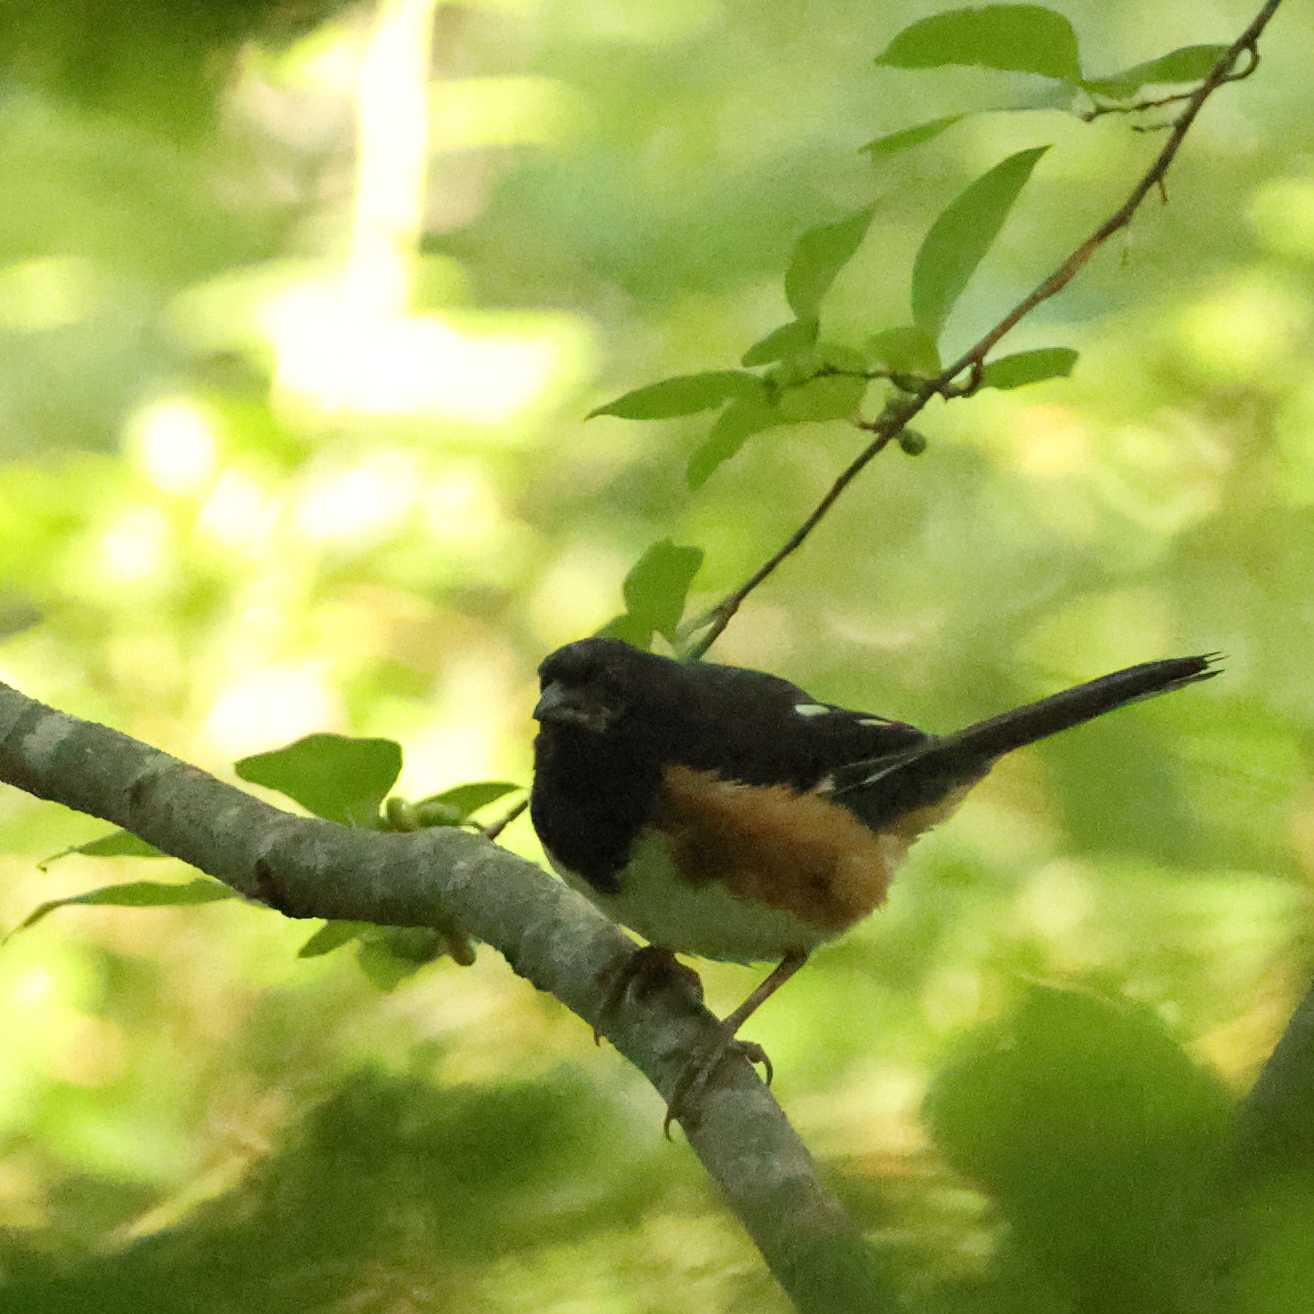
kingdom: Animalia
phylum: Chordata
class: Aves
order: Passeriformes
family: Passerellidae
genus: Pipilo
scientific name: Pipilo erythrophthalmus
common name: Eastern towhee
